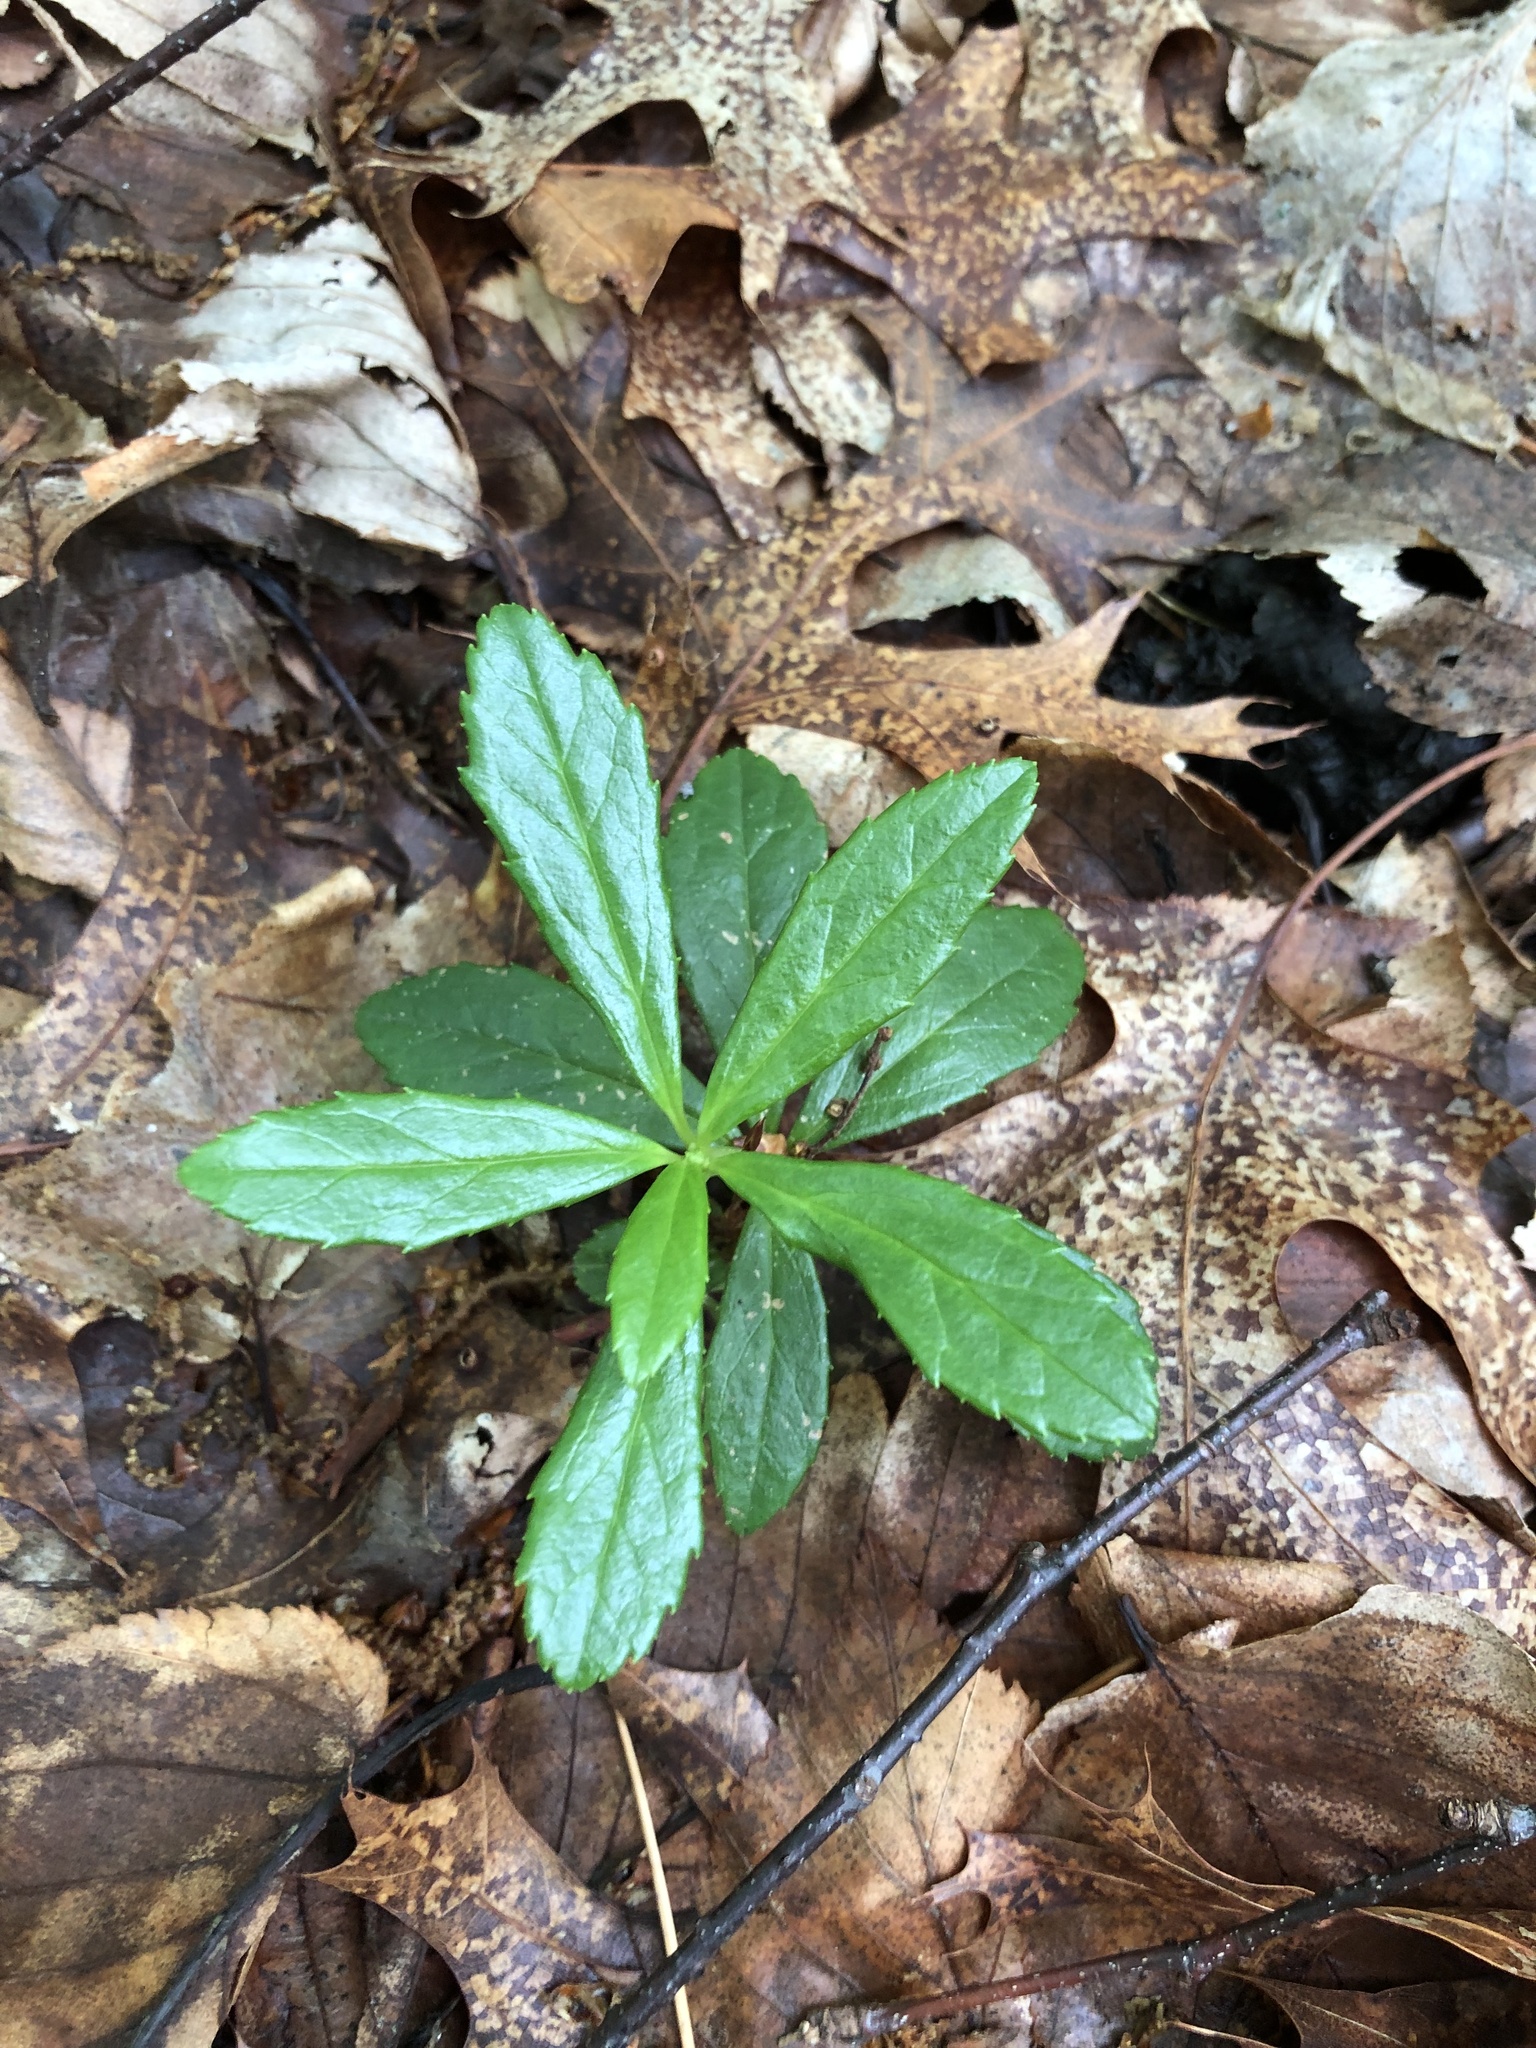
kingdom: Plantae
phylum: Tracheophyta
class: Magnoliopsida
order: Ericales
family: Ericaceae
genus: Chimaphila
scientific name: Chimaphila umbellata
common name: Pipsissewa
